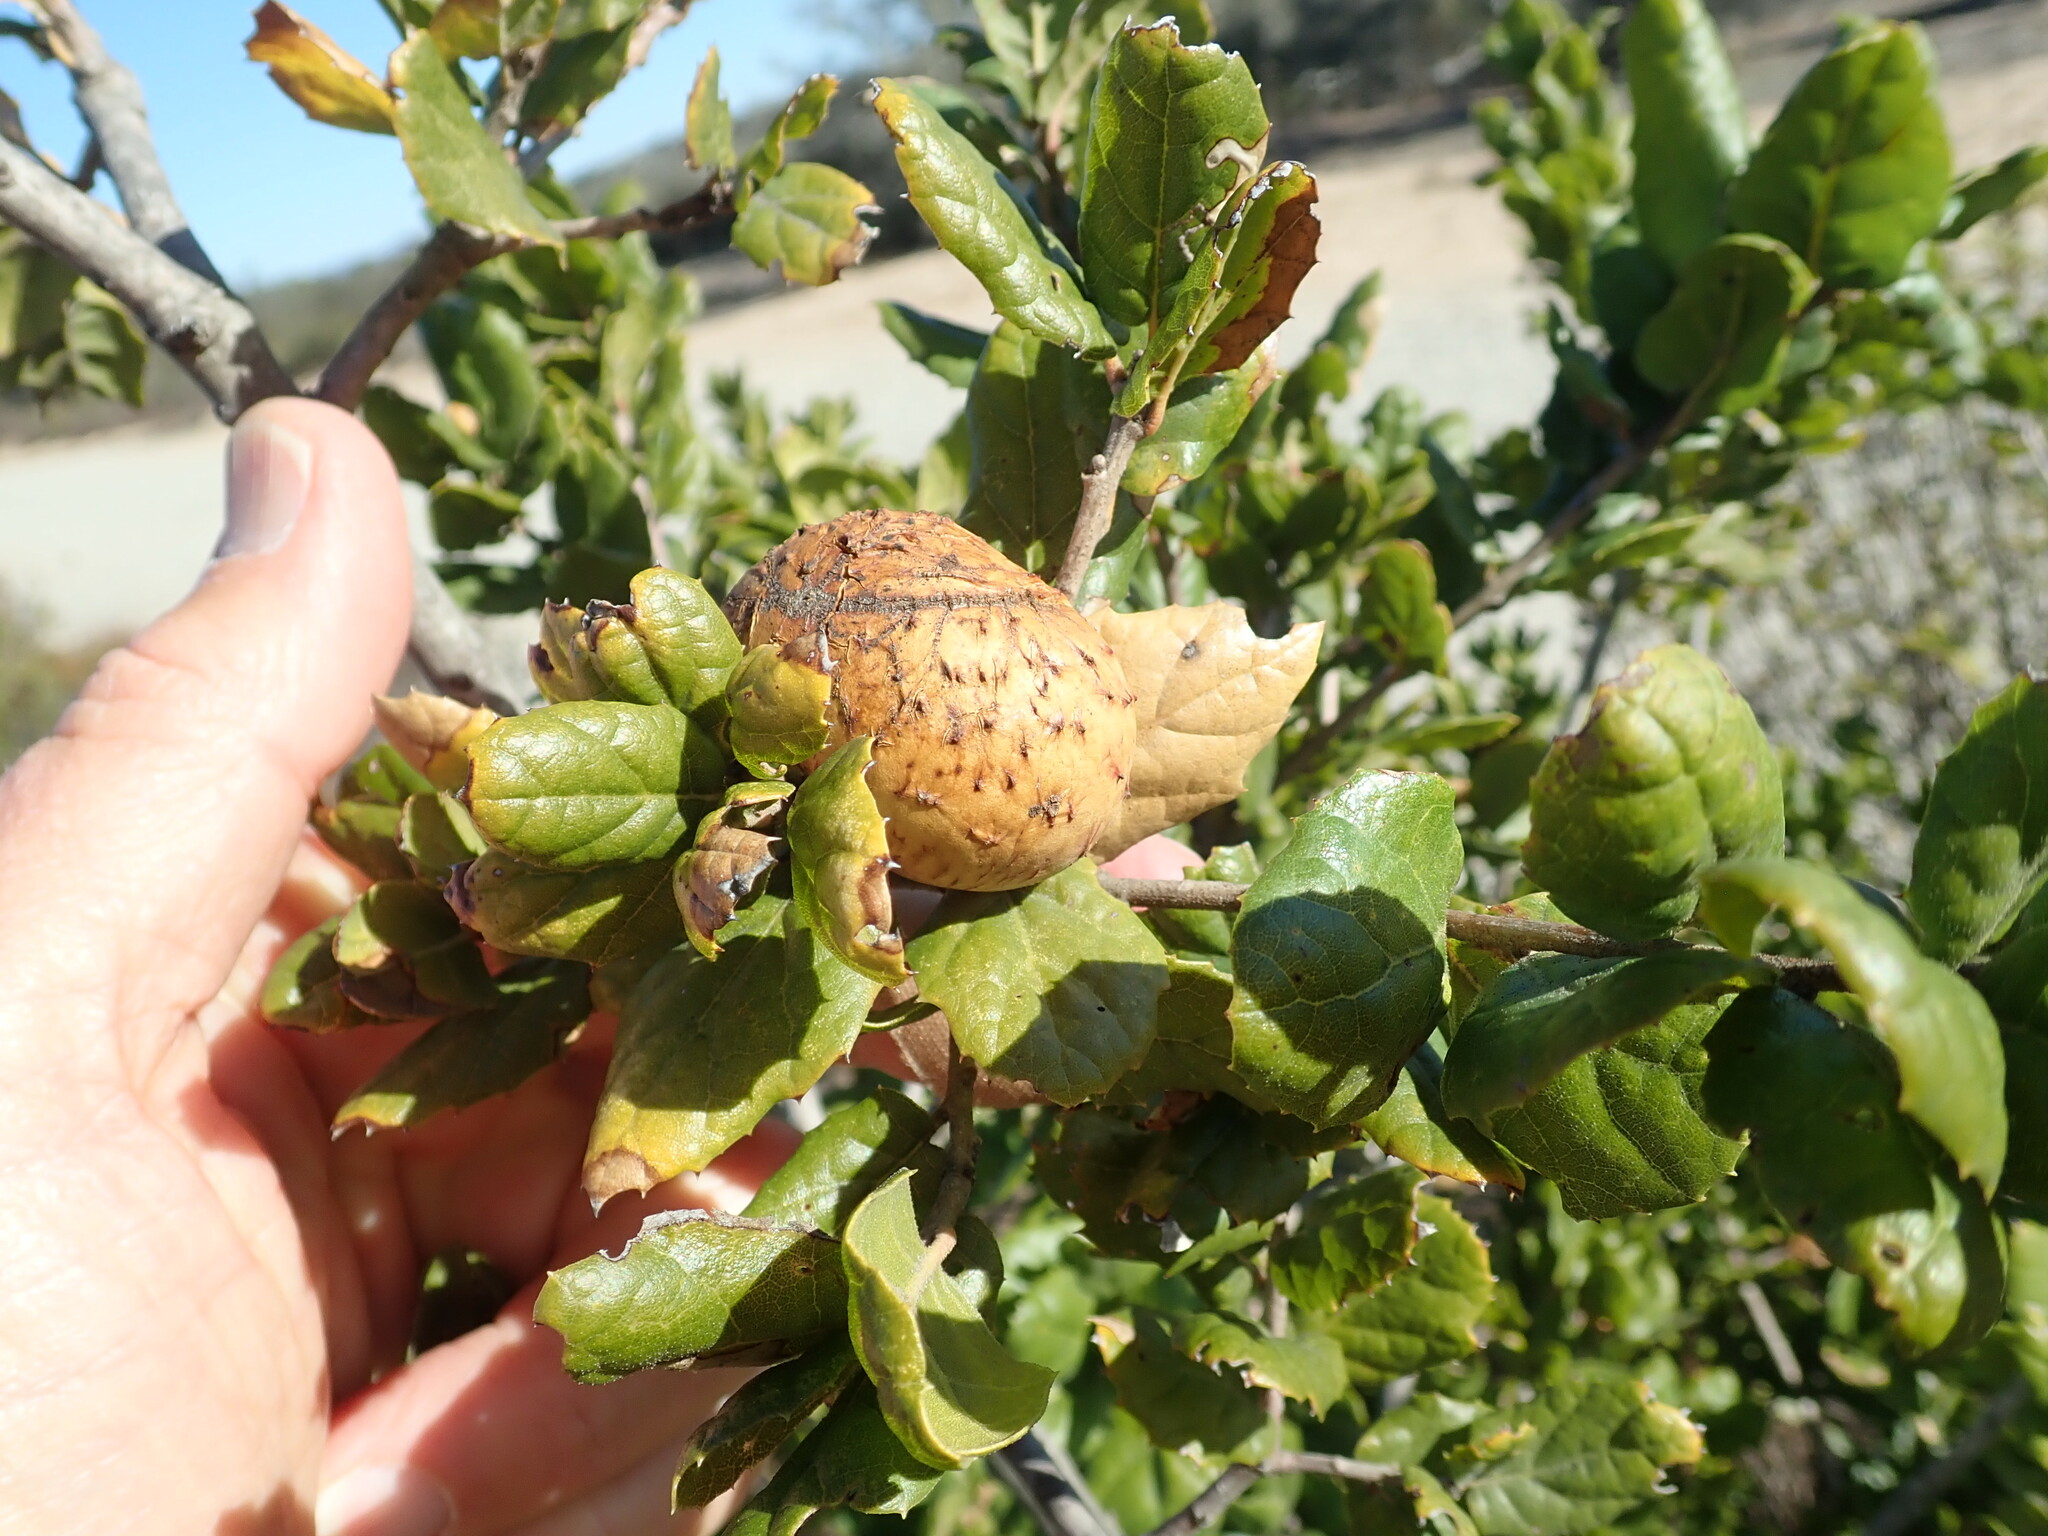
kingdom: Animalia
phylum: Arthropoda
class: Insecta
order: Hymenoptera
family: Cynipidae
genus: Amphibolips
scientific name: Amphibolips quercuspomiformis
